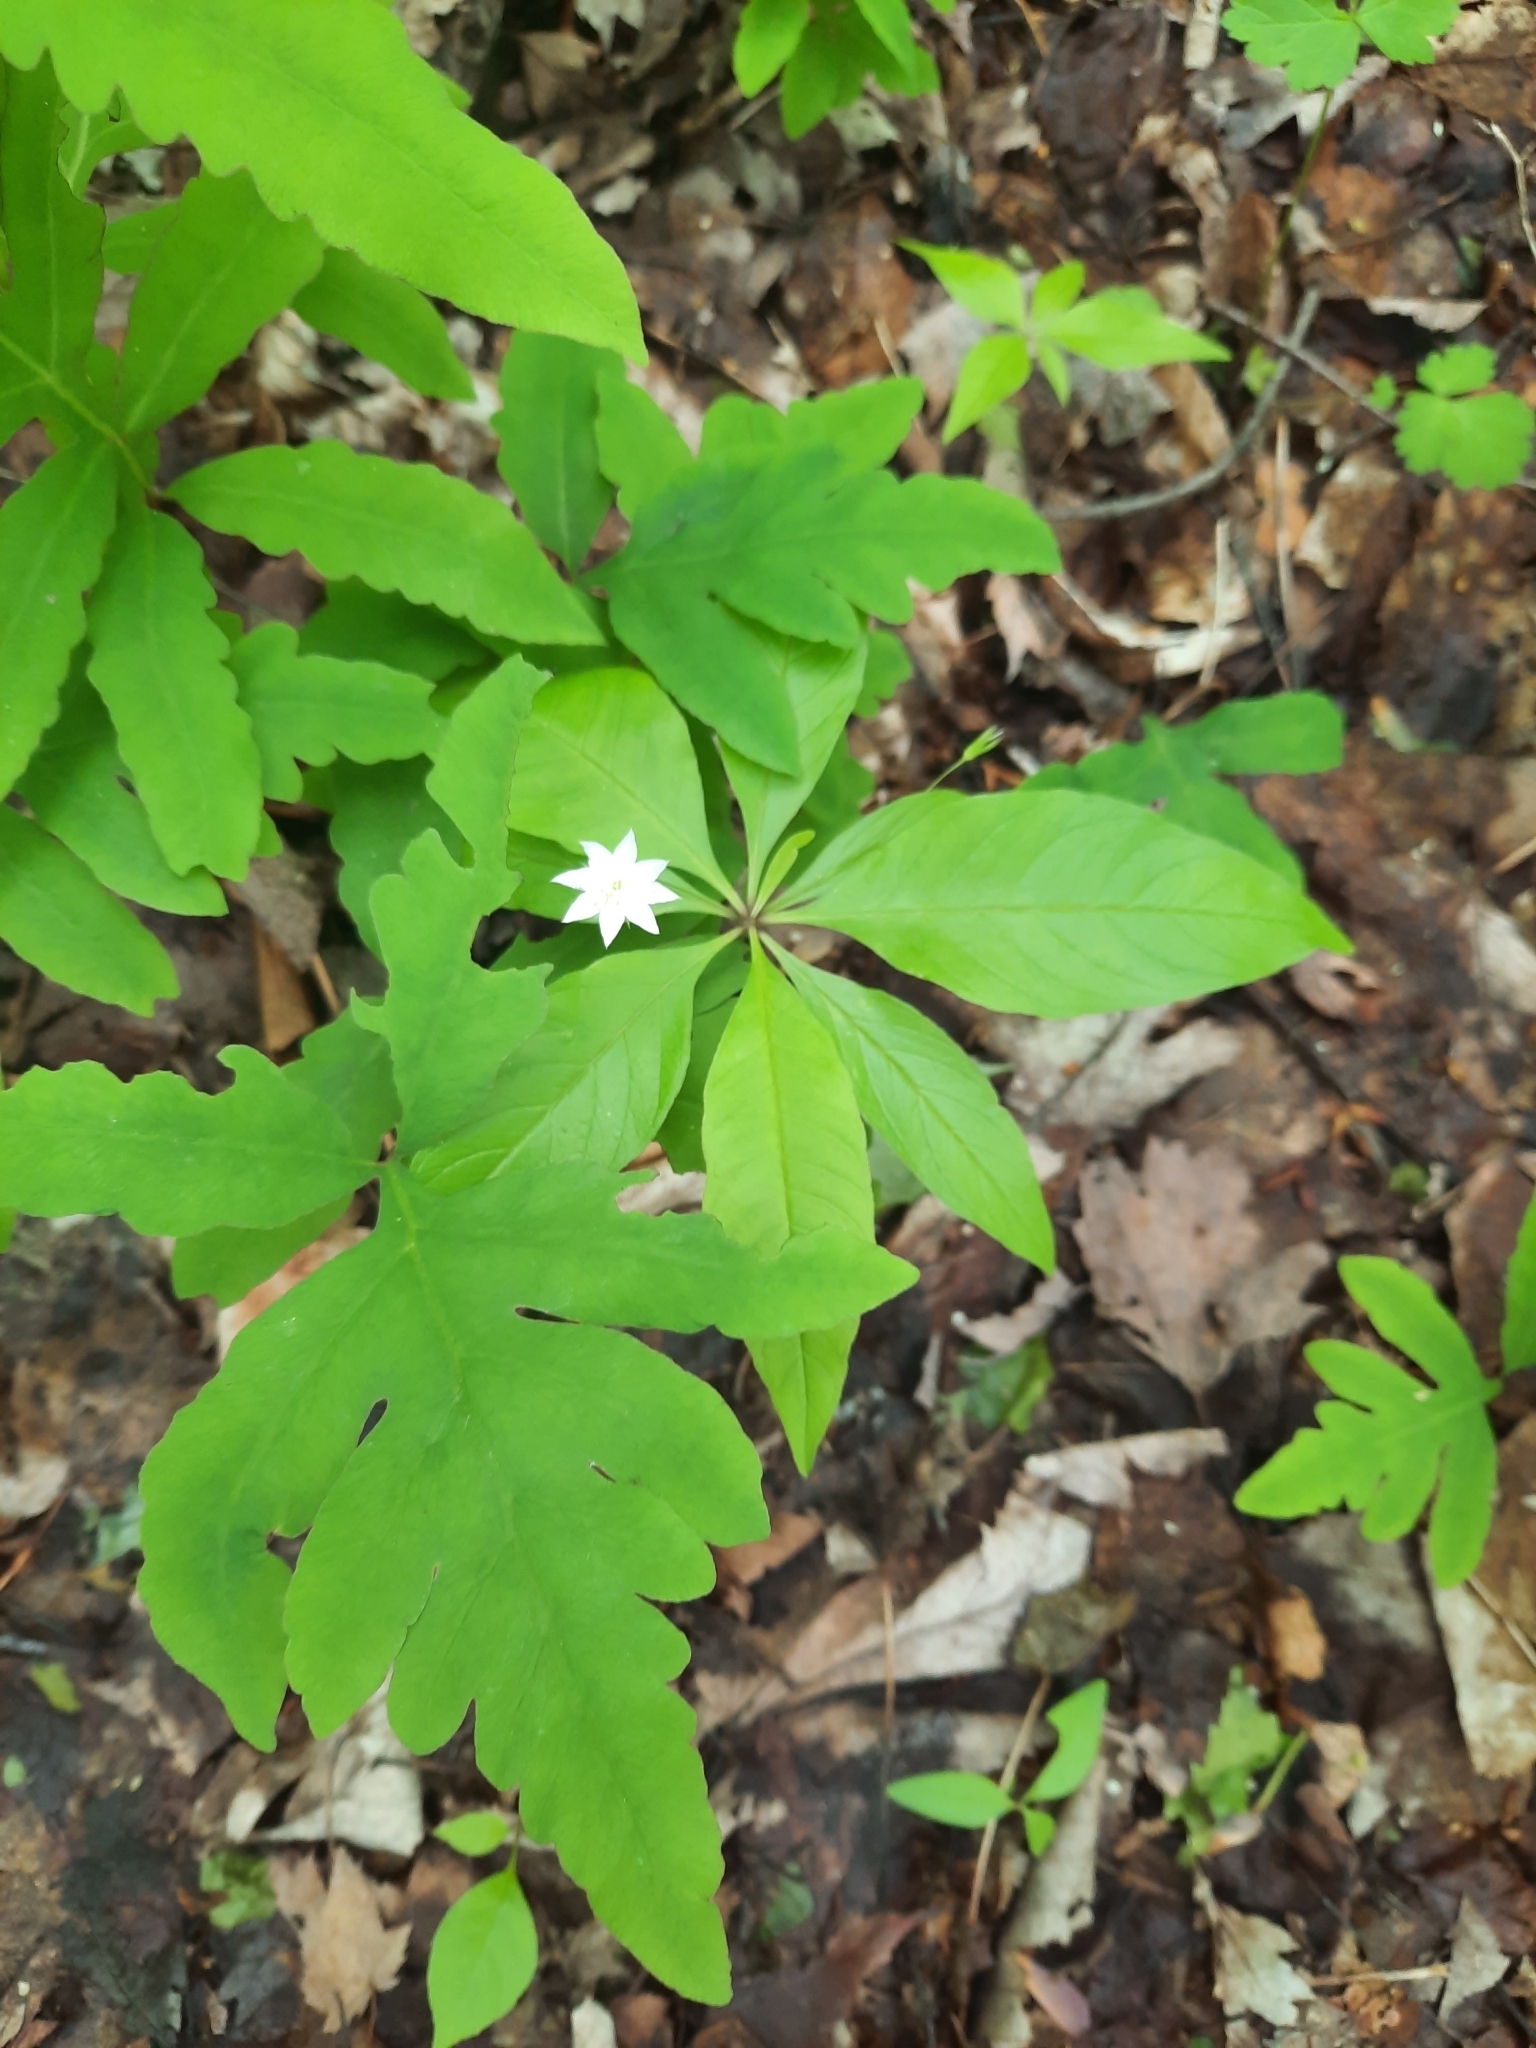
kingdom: Plantae
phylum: Tracheophyta
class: Magnoliopsida
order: Ericales
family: Primulaceae
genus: Lysimachia
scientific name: Lysimachia borealis
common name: American starflower
